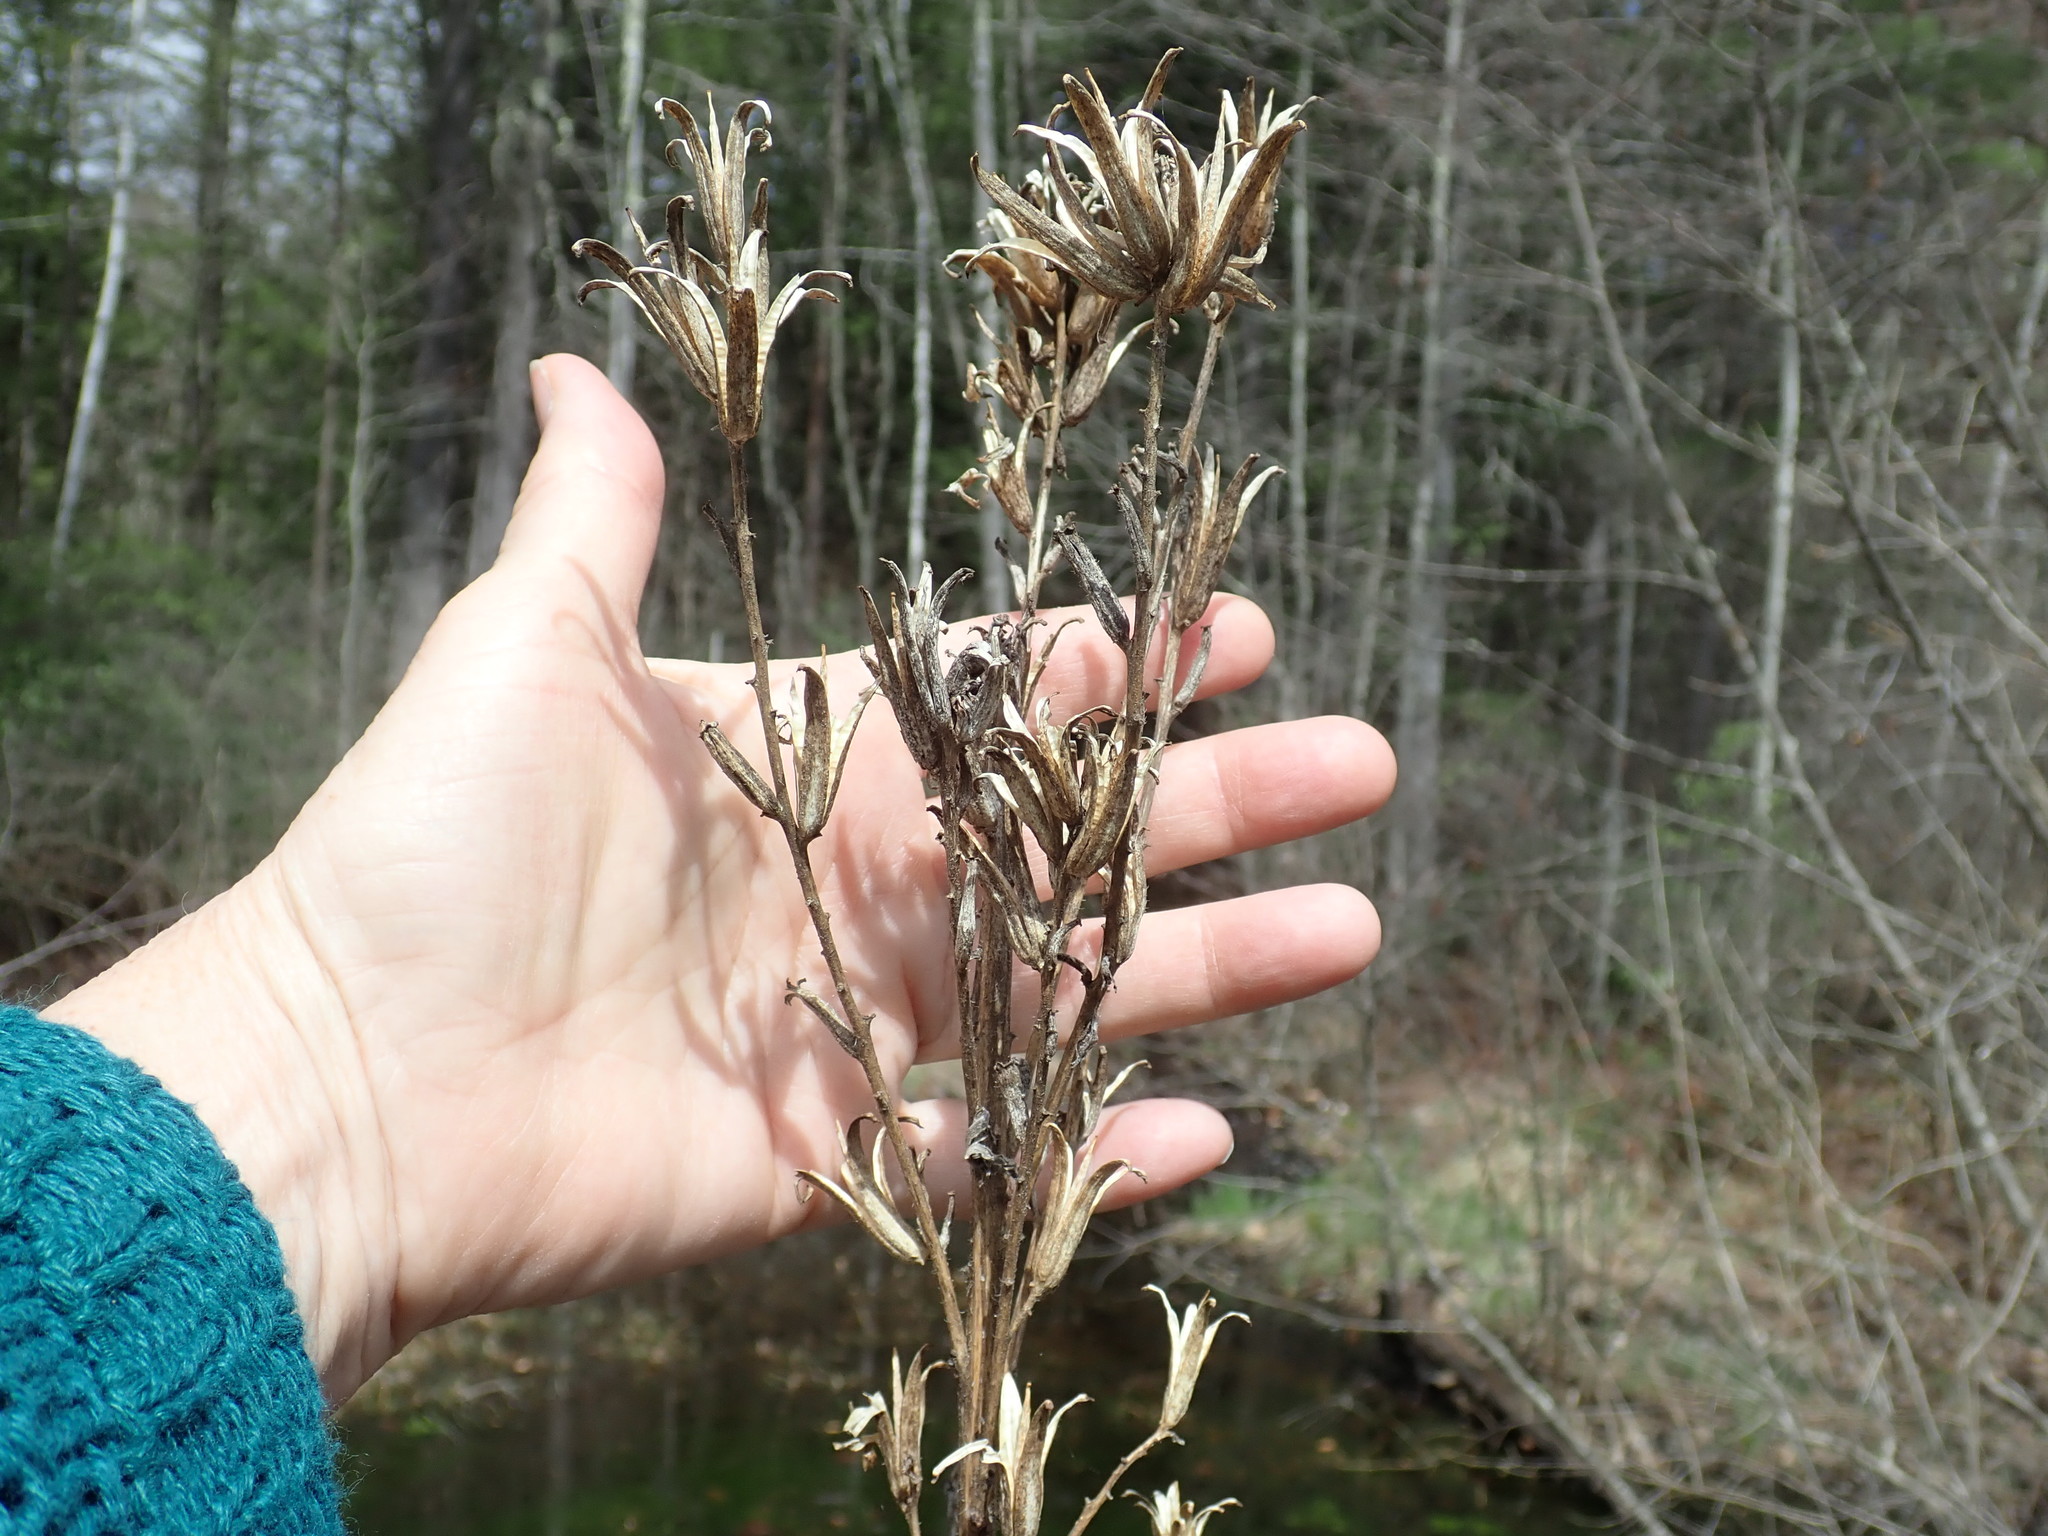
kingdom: Plantae
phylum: Tracheophyta
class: Magnoliopsida
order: Myrtales
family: Onagraceae
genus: Oenothera
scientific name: Oenothera biennis
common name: Common evening-primrose
